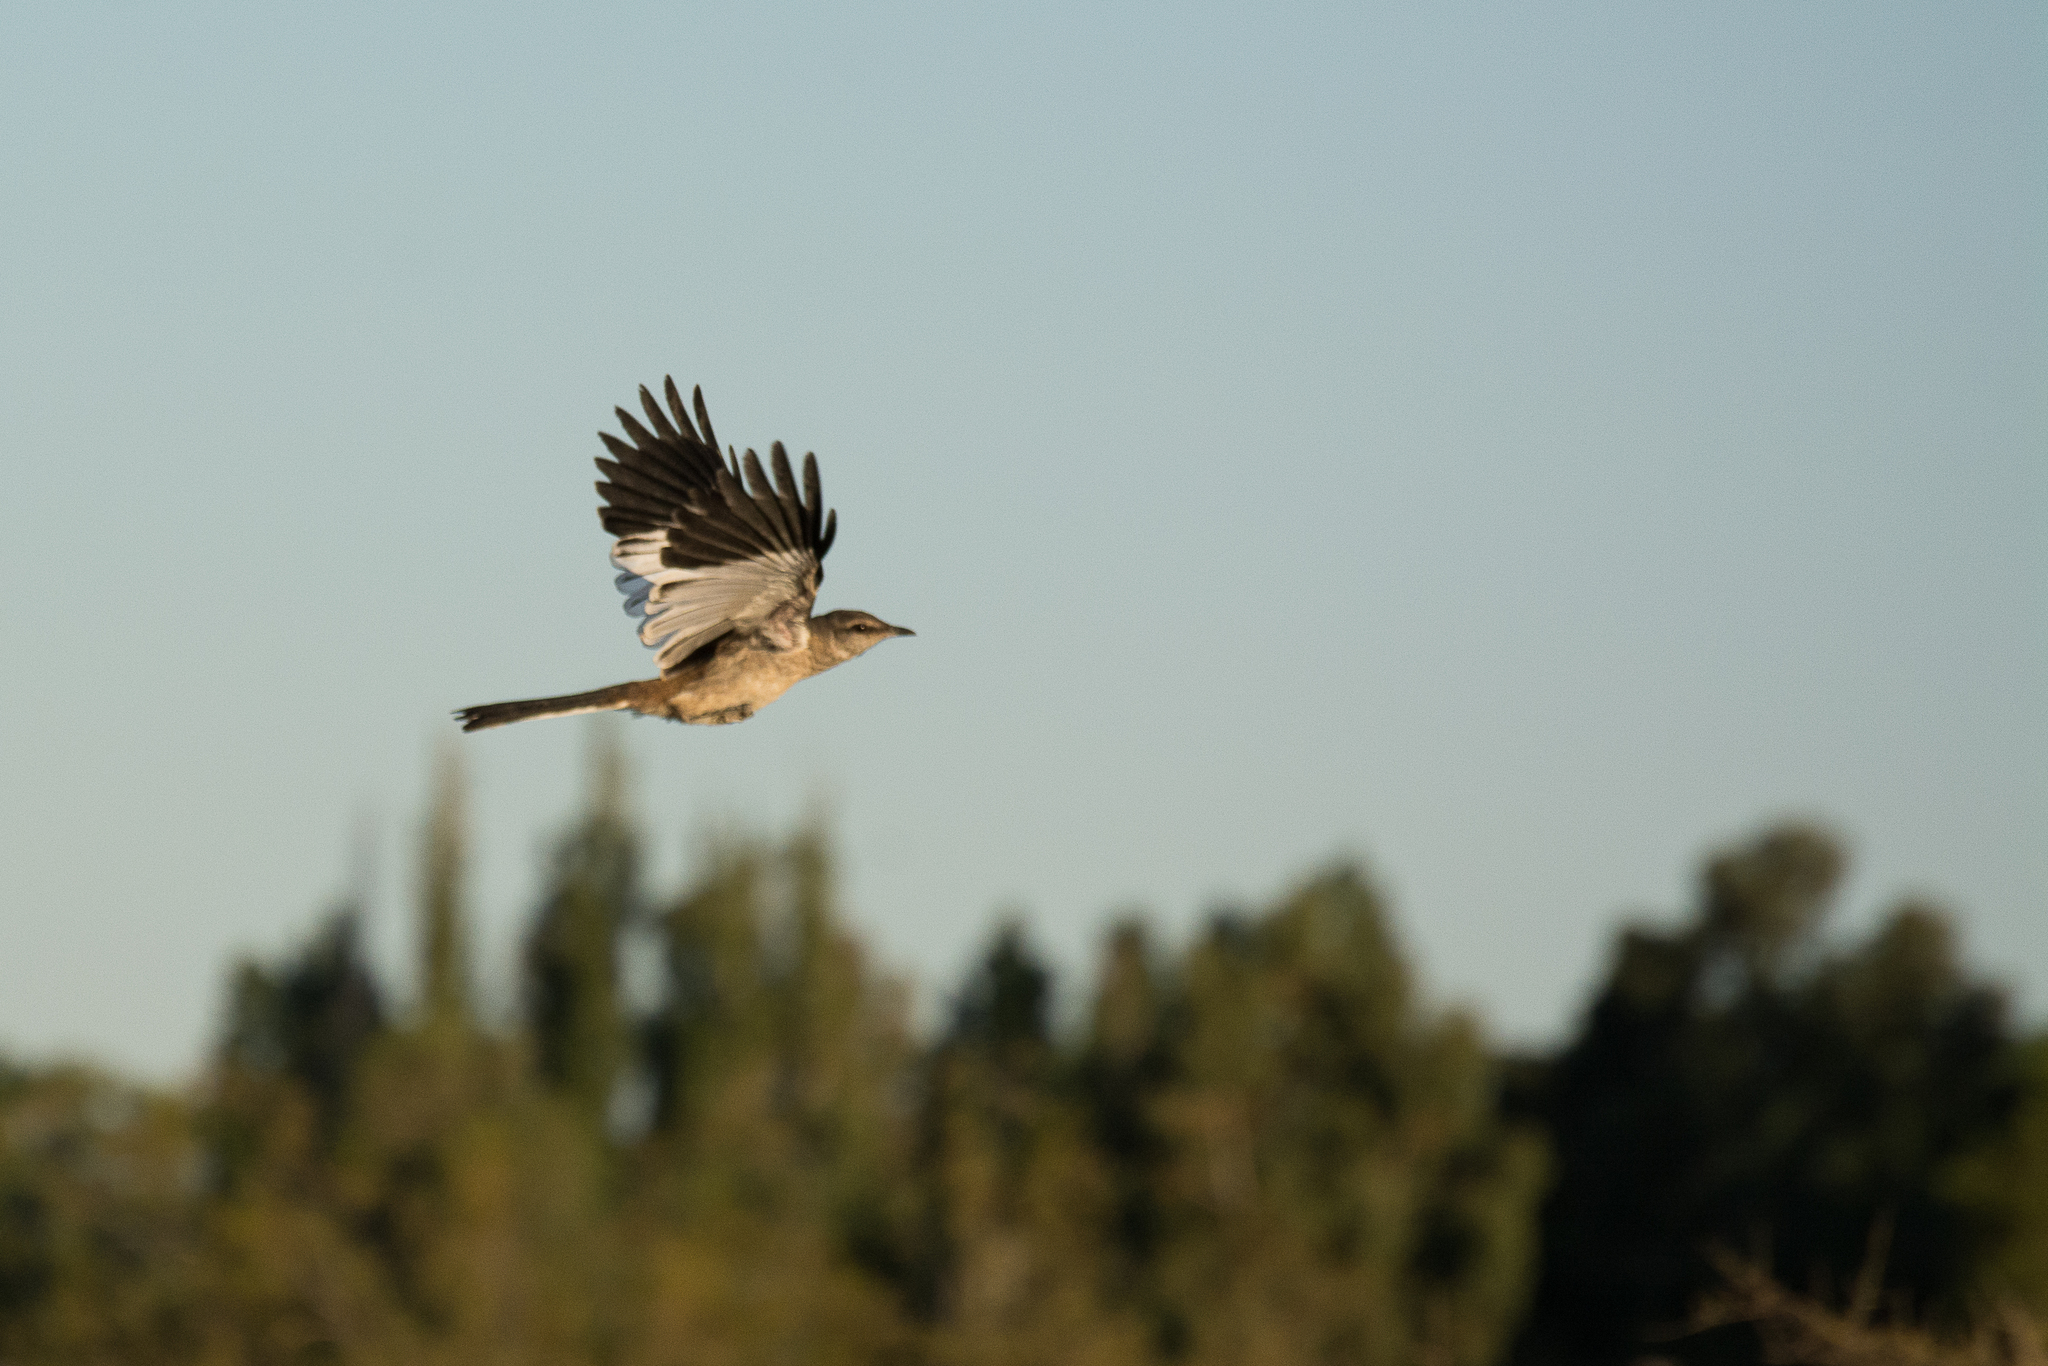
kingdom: Animalia
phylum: Chordata
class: Aves
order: Passeriformes
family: Mimidae
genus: Mimus
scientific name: Mimus triurus
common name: White-banded mockingbird
